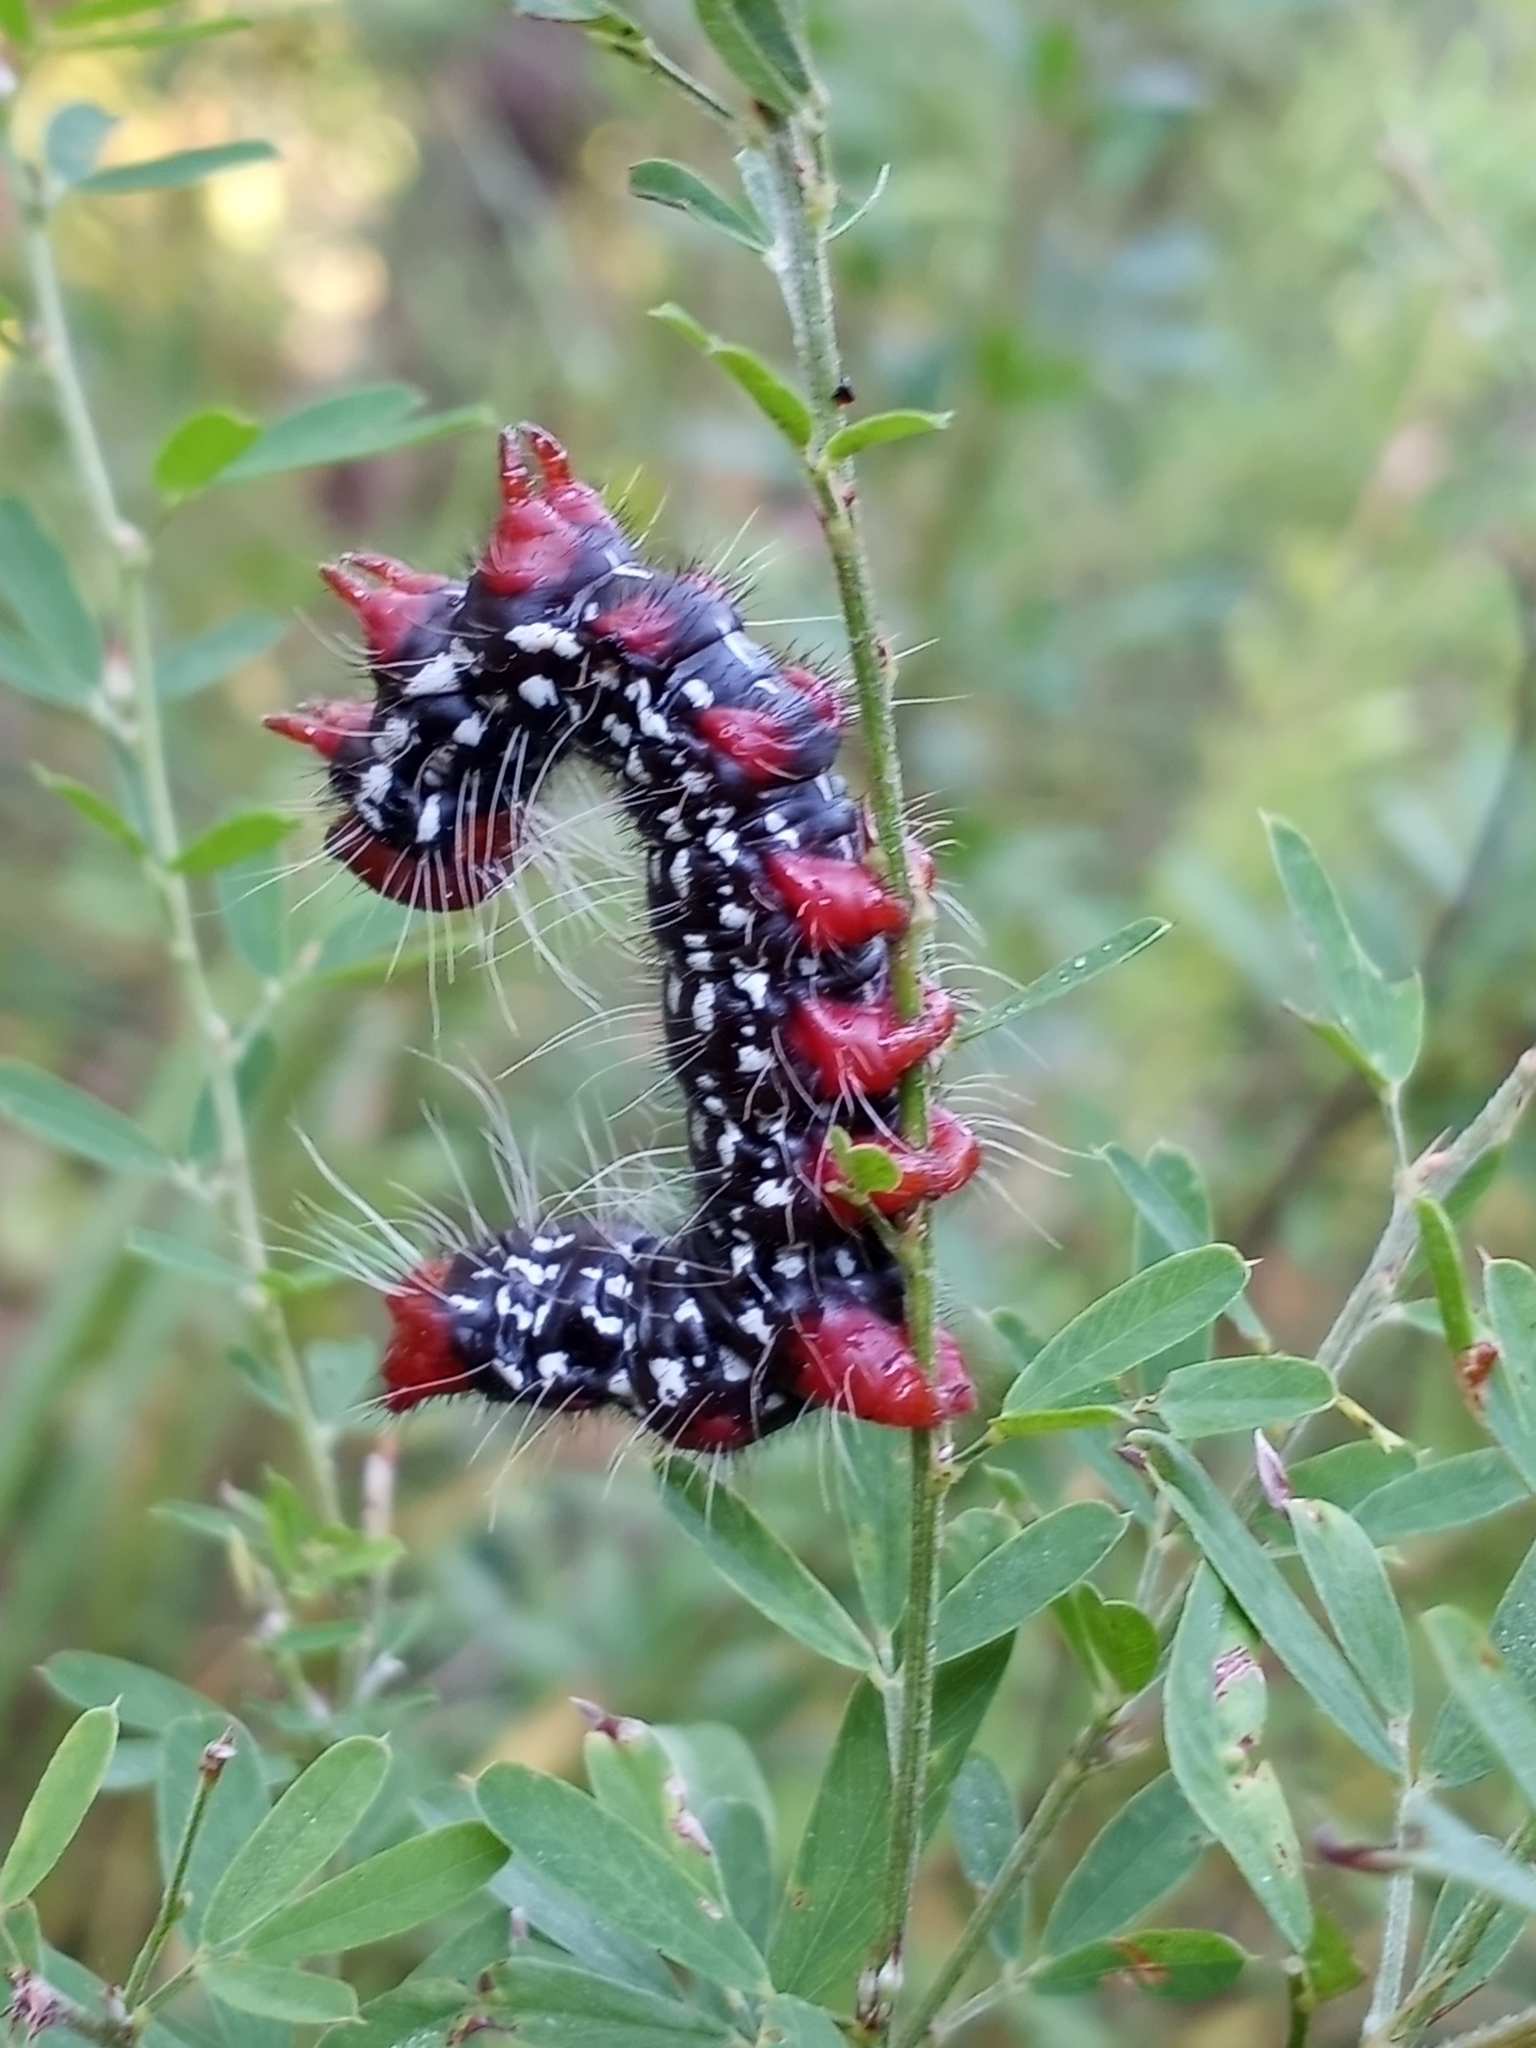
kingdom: Animalia
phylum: Arthropoda
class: Insecta
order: Lepidoptera
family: Notodontidae
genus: Datana
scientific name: Datana major
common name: Azalea caterpillar
